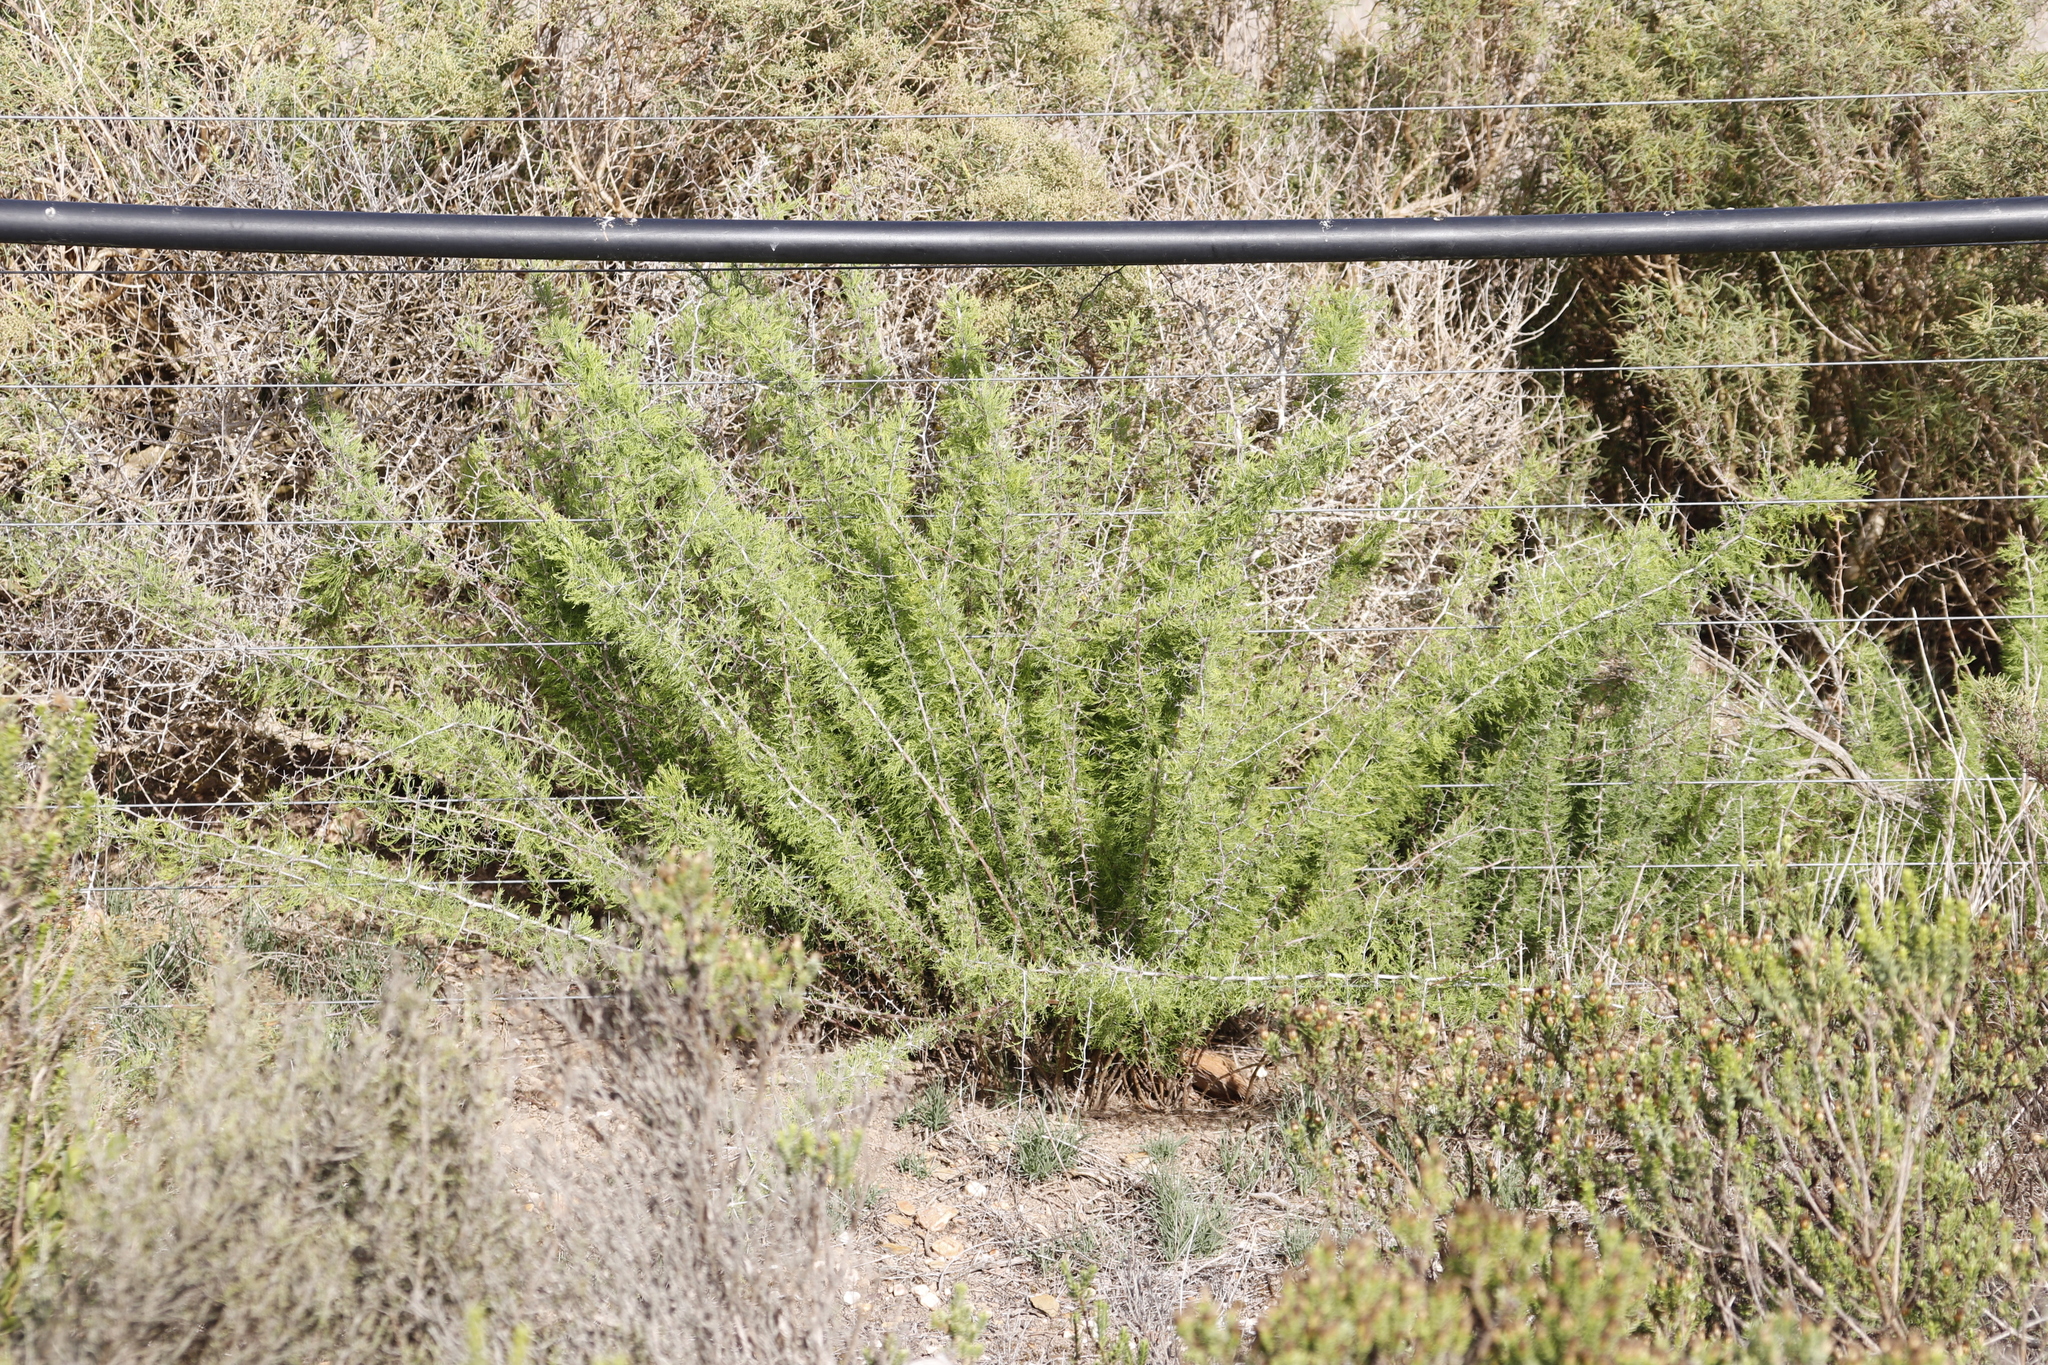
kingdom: Plantae
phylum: Tracheophyta
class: Liliopsida
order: Asparagales
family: Asparagaceae
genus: Asparagus
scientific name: Asparagus suaveolens
